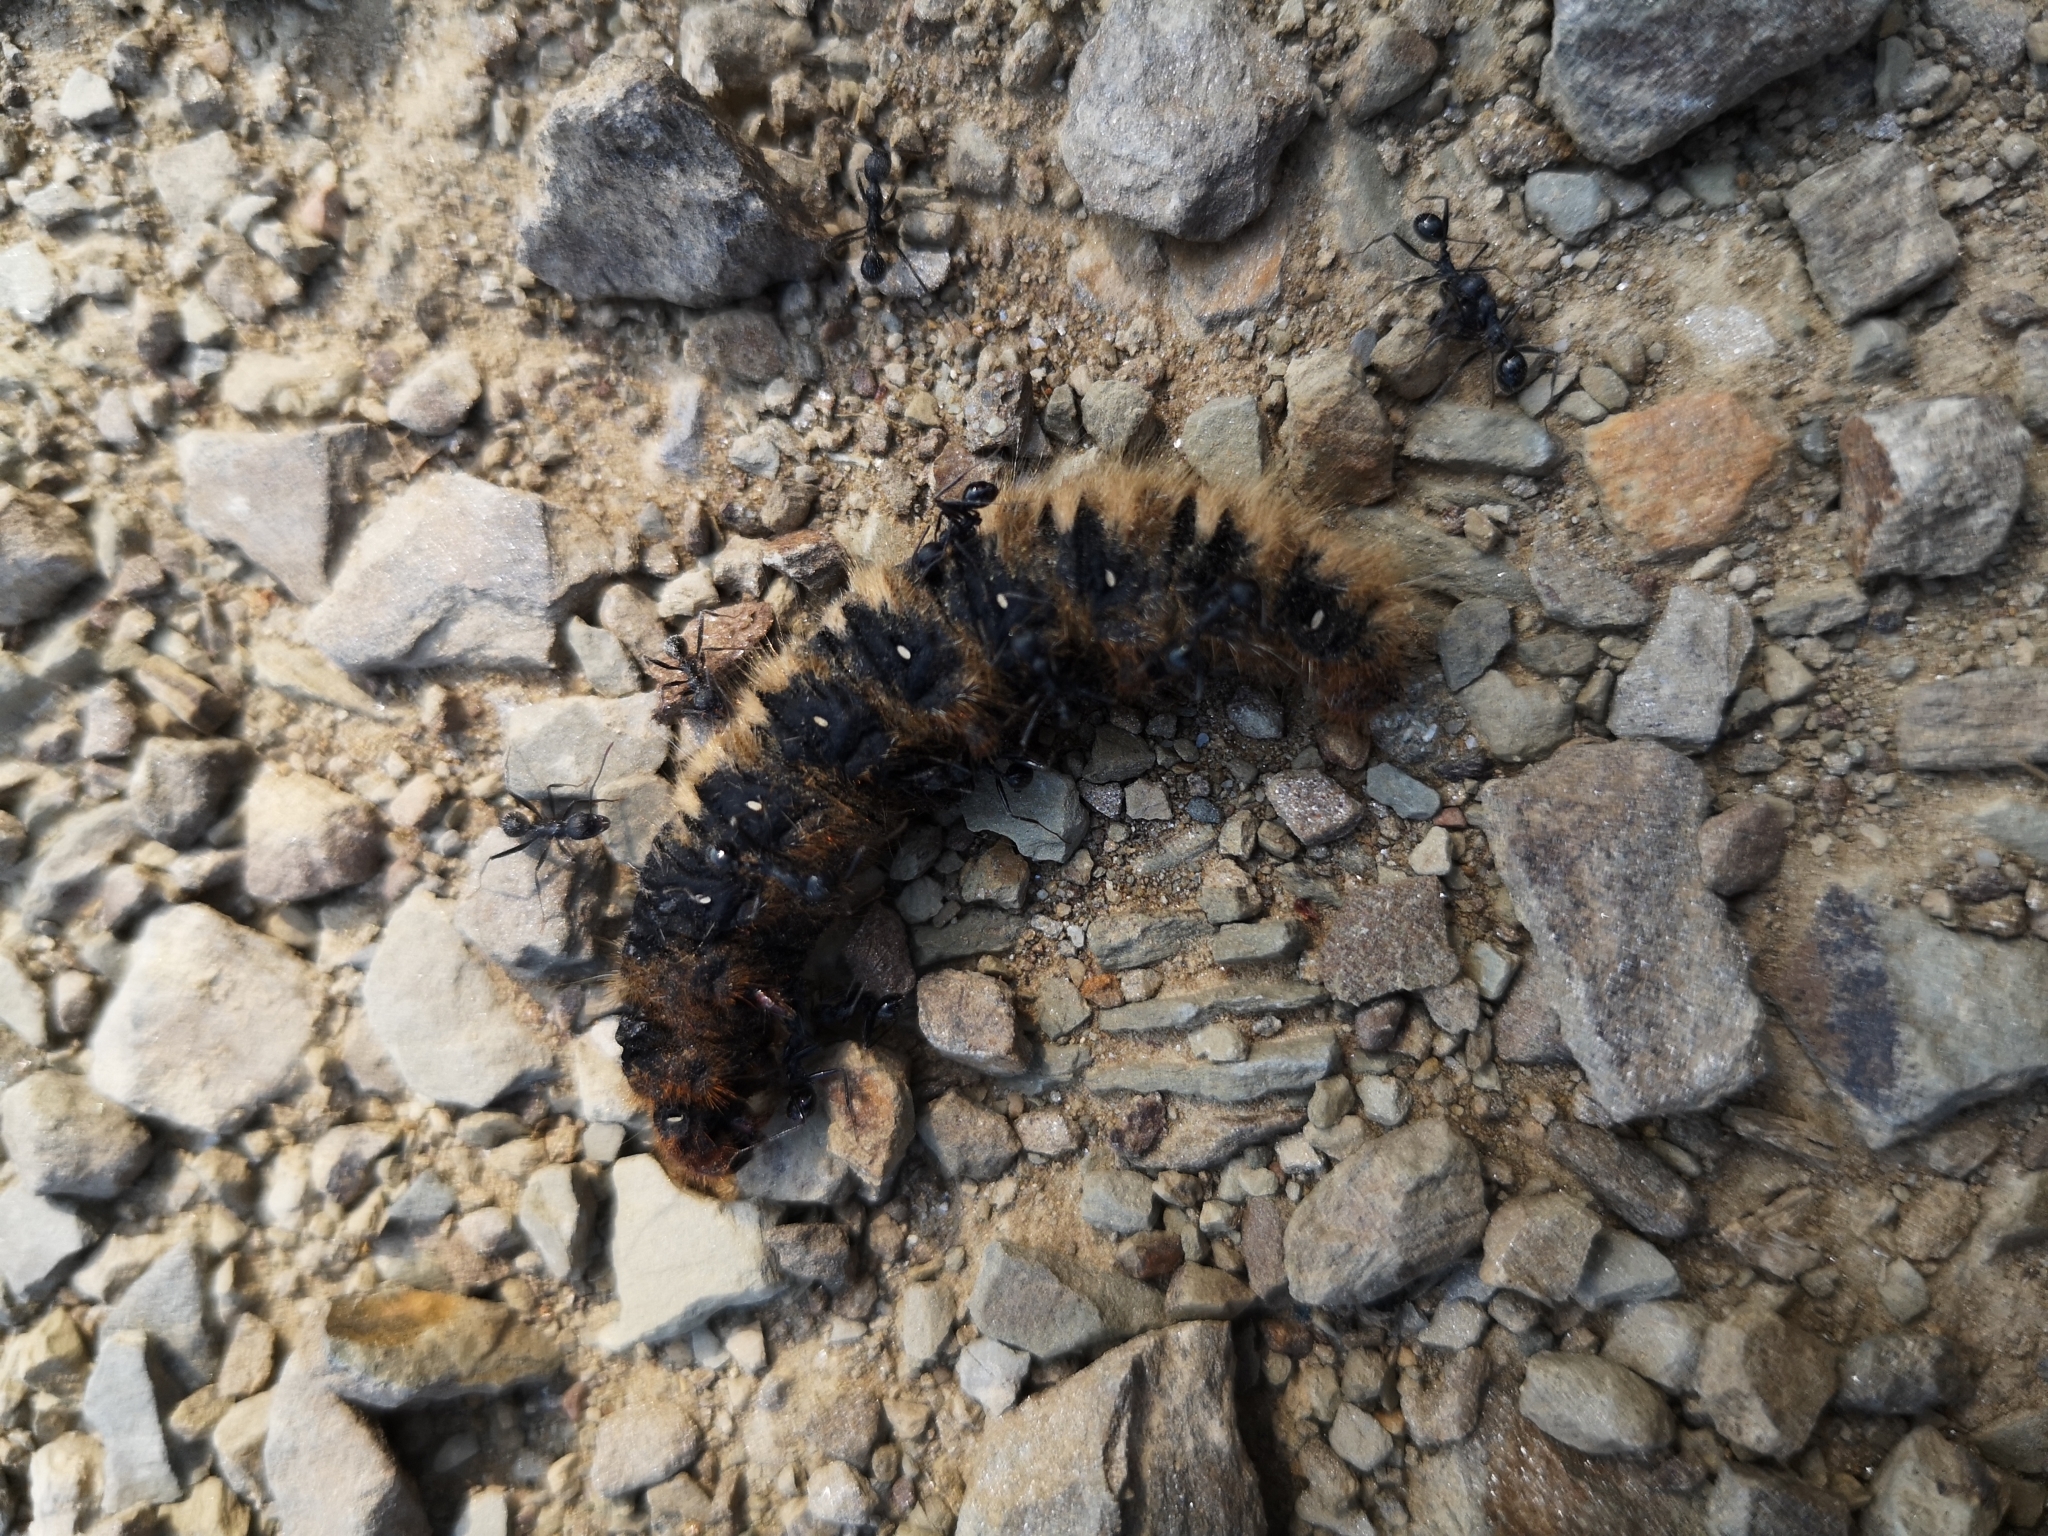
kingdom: Animalia
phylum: Arthropoda
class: Insecta
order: Lepidoptera
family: Lasiocampidae
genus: Lasiocampa
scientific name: Lasiocampa quercus
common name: Oak eggar
